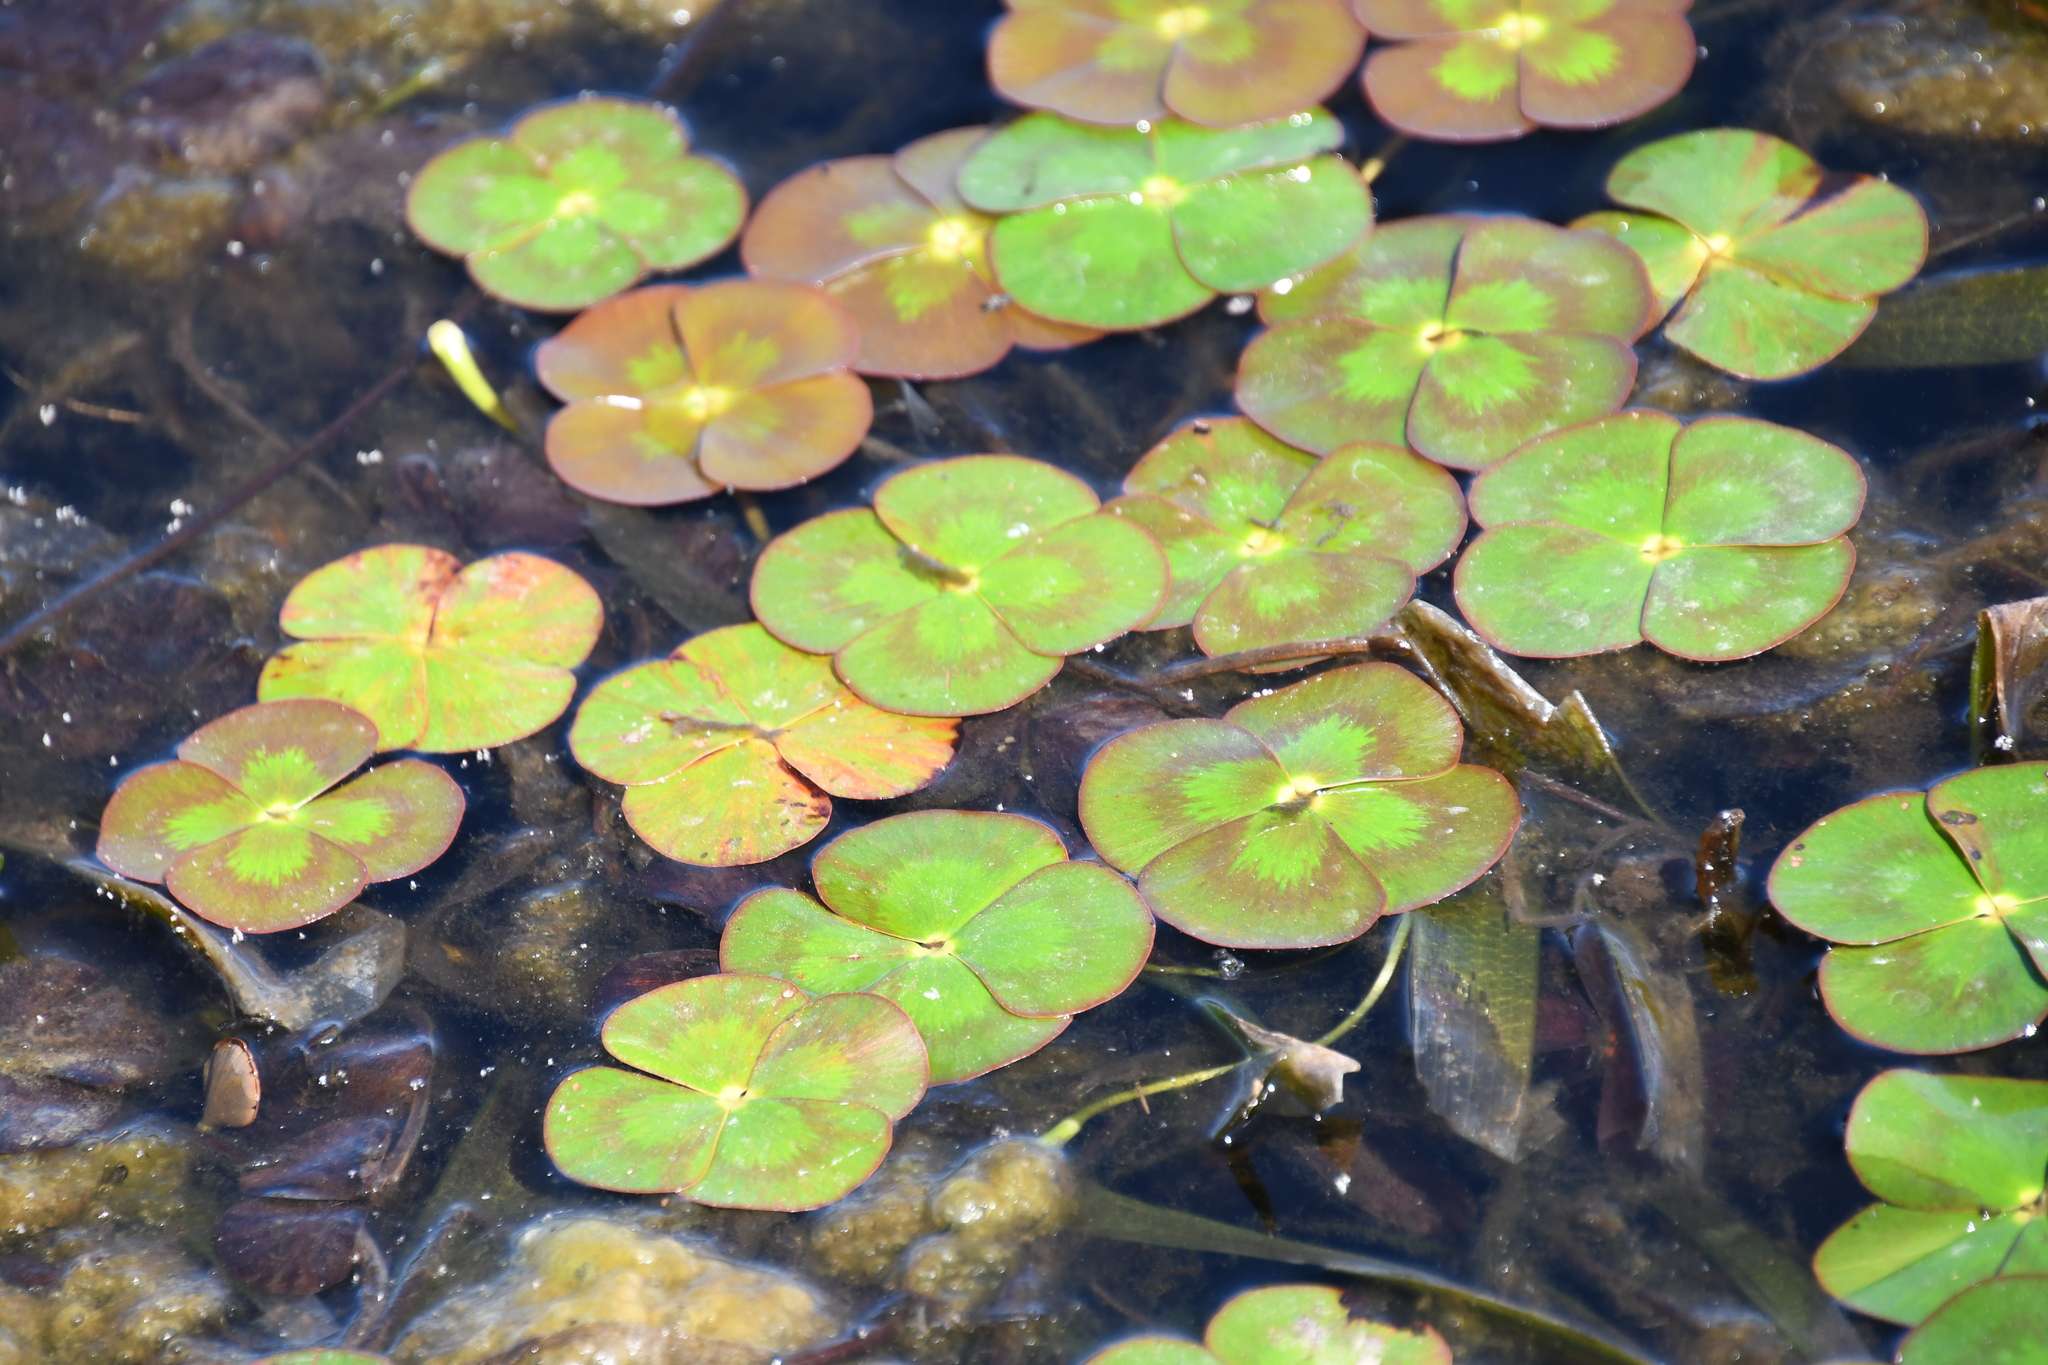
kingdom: Plantae
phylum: Tracheophyta
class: Polypodiopsida
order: Salviniales
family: Marsileaceae
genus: Marsilea
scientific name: Marsilea mutica
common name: Australian water-clover
